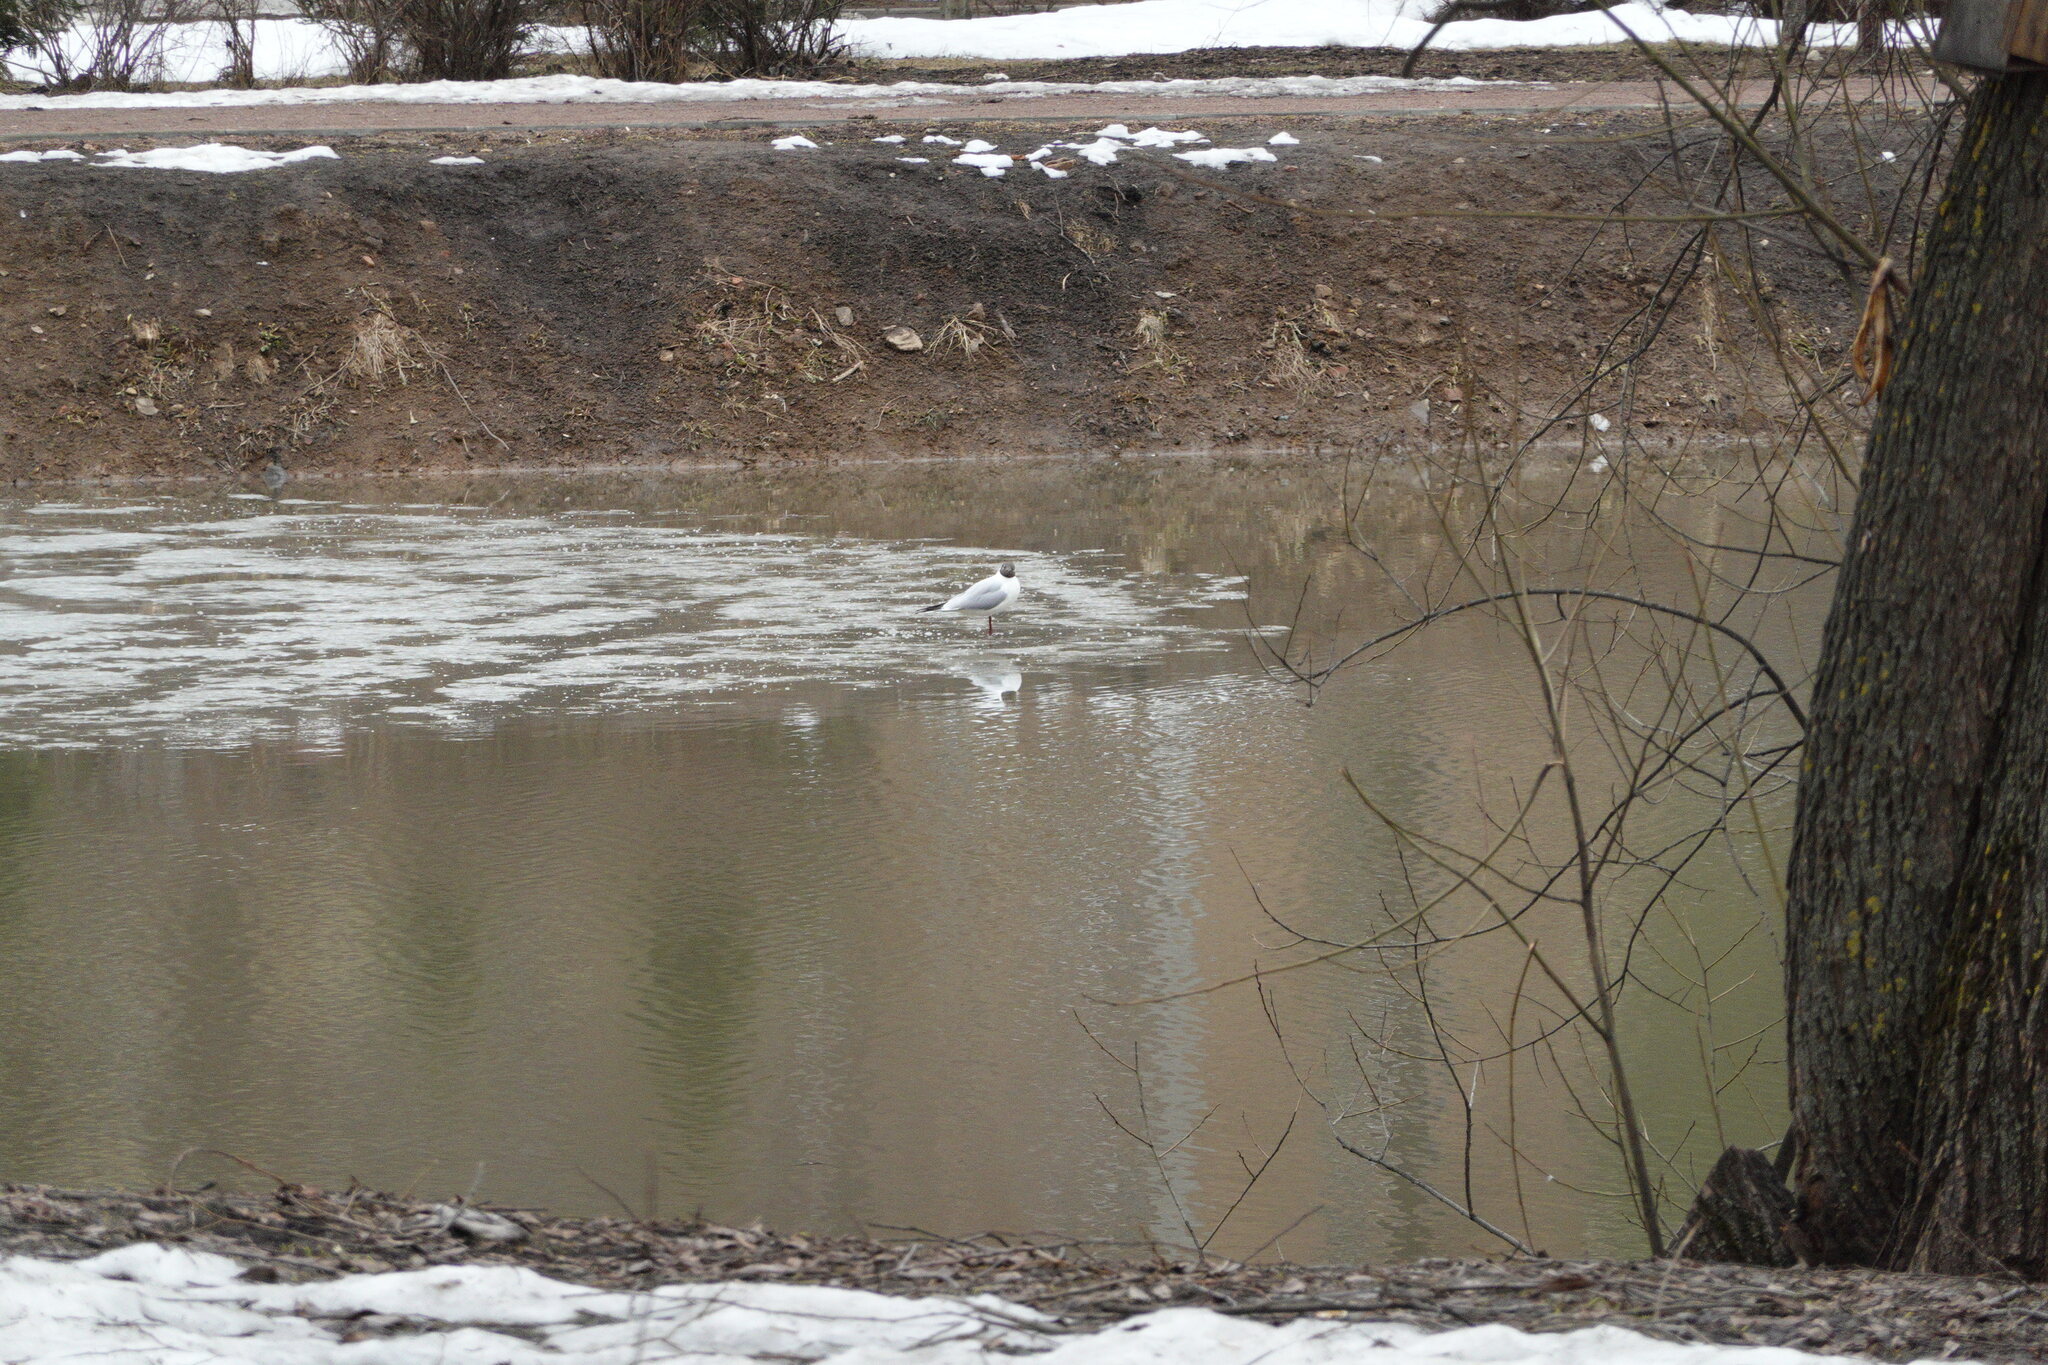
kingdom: Animalia
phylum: Chordata
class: Aves
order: Charadriiformes
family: Laridae
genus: Chroicocephalus
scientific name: Chroicocephalus ridibundus
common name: Black-headed gull
